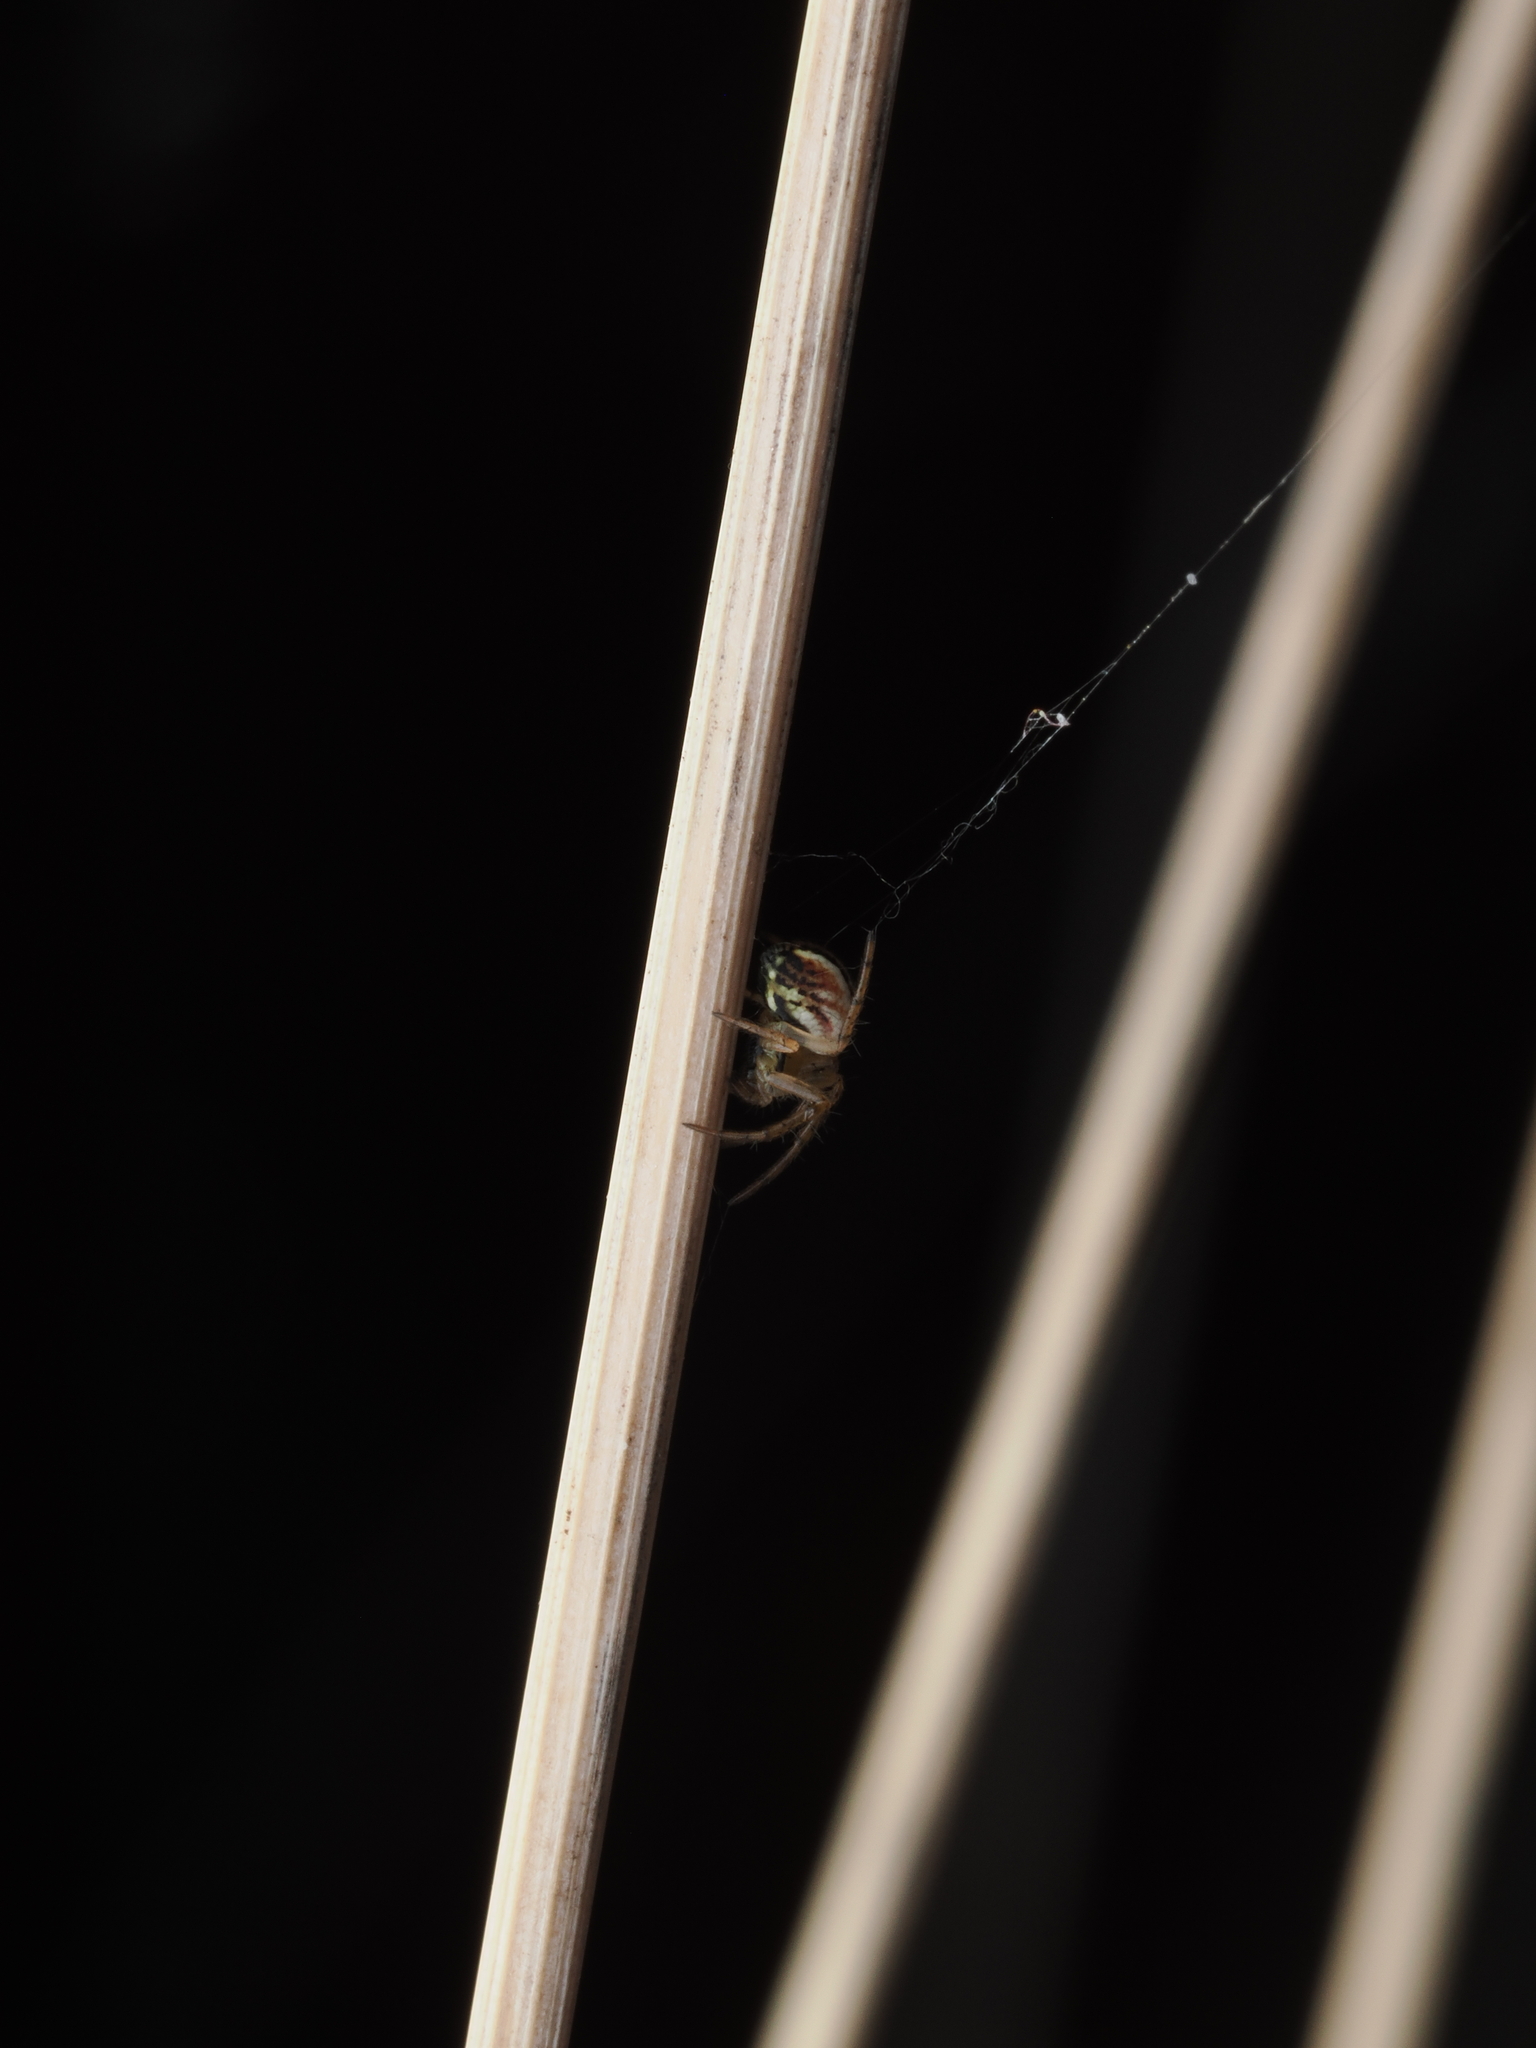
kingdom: Animalia
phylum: Arthropoda
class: Arachnida
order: Araneae
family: Araneidae
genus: Mangora
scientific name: Mangora acalypha
